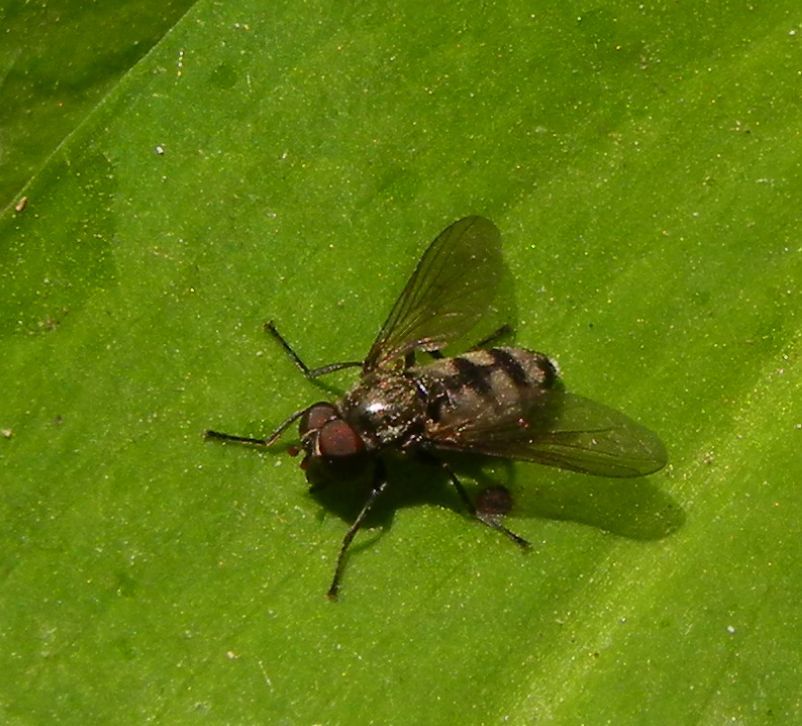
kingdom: Animalia
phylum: Arthropoda
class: Insecta
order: Diptera
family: Syrphidae
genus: Portevinia
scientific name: Portevinia maculata
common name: Ramson's hoverfly
